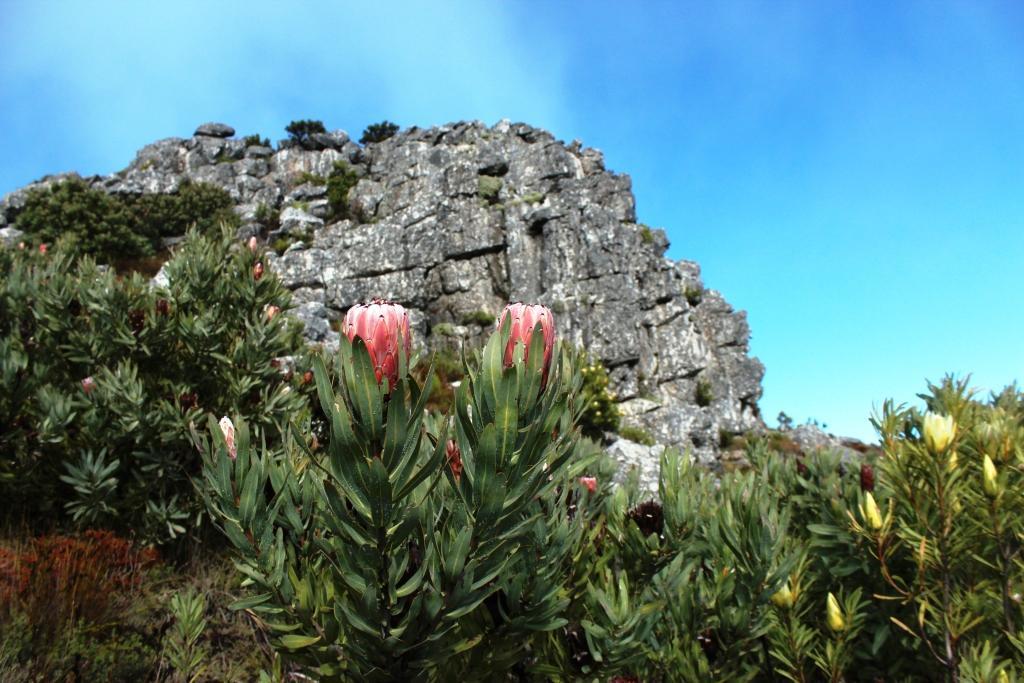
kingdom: Plantae
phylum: Tracheophyta
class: Magnoliopsida
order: Proteales
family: Proteaceae
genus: Protea
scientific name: Protea laurifolia
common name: Grey-leaf sugarbsh
